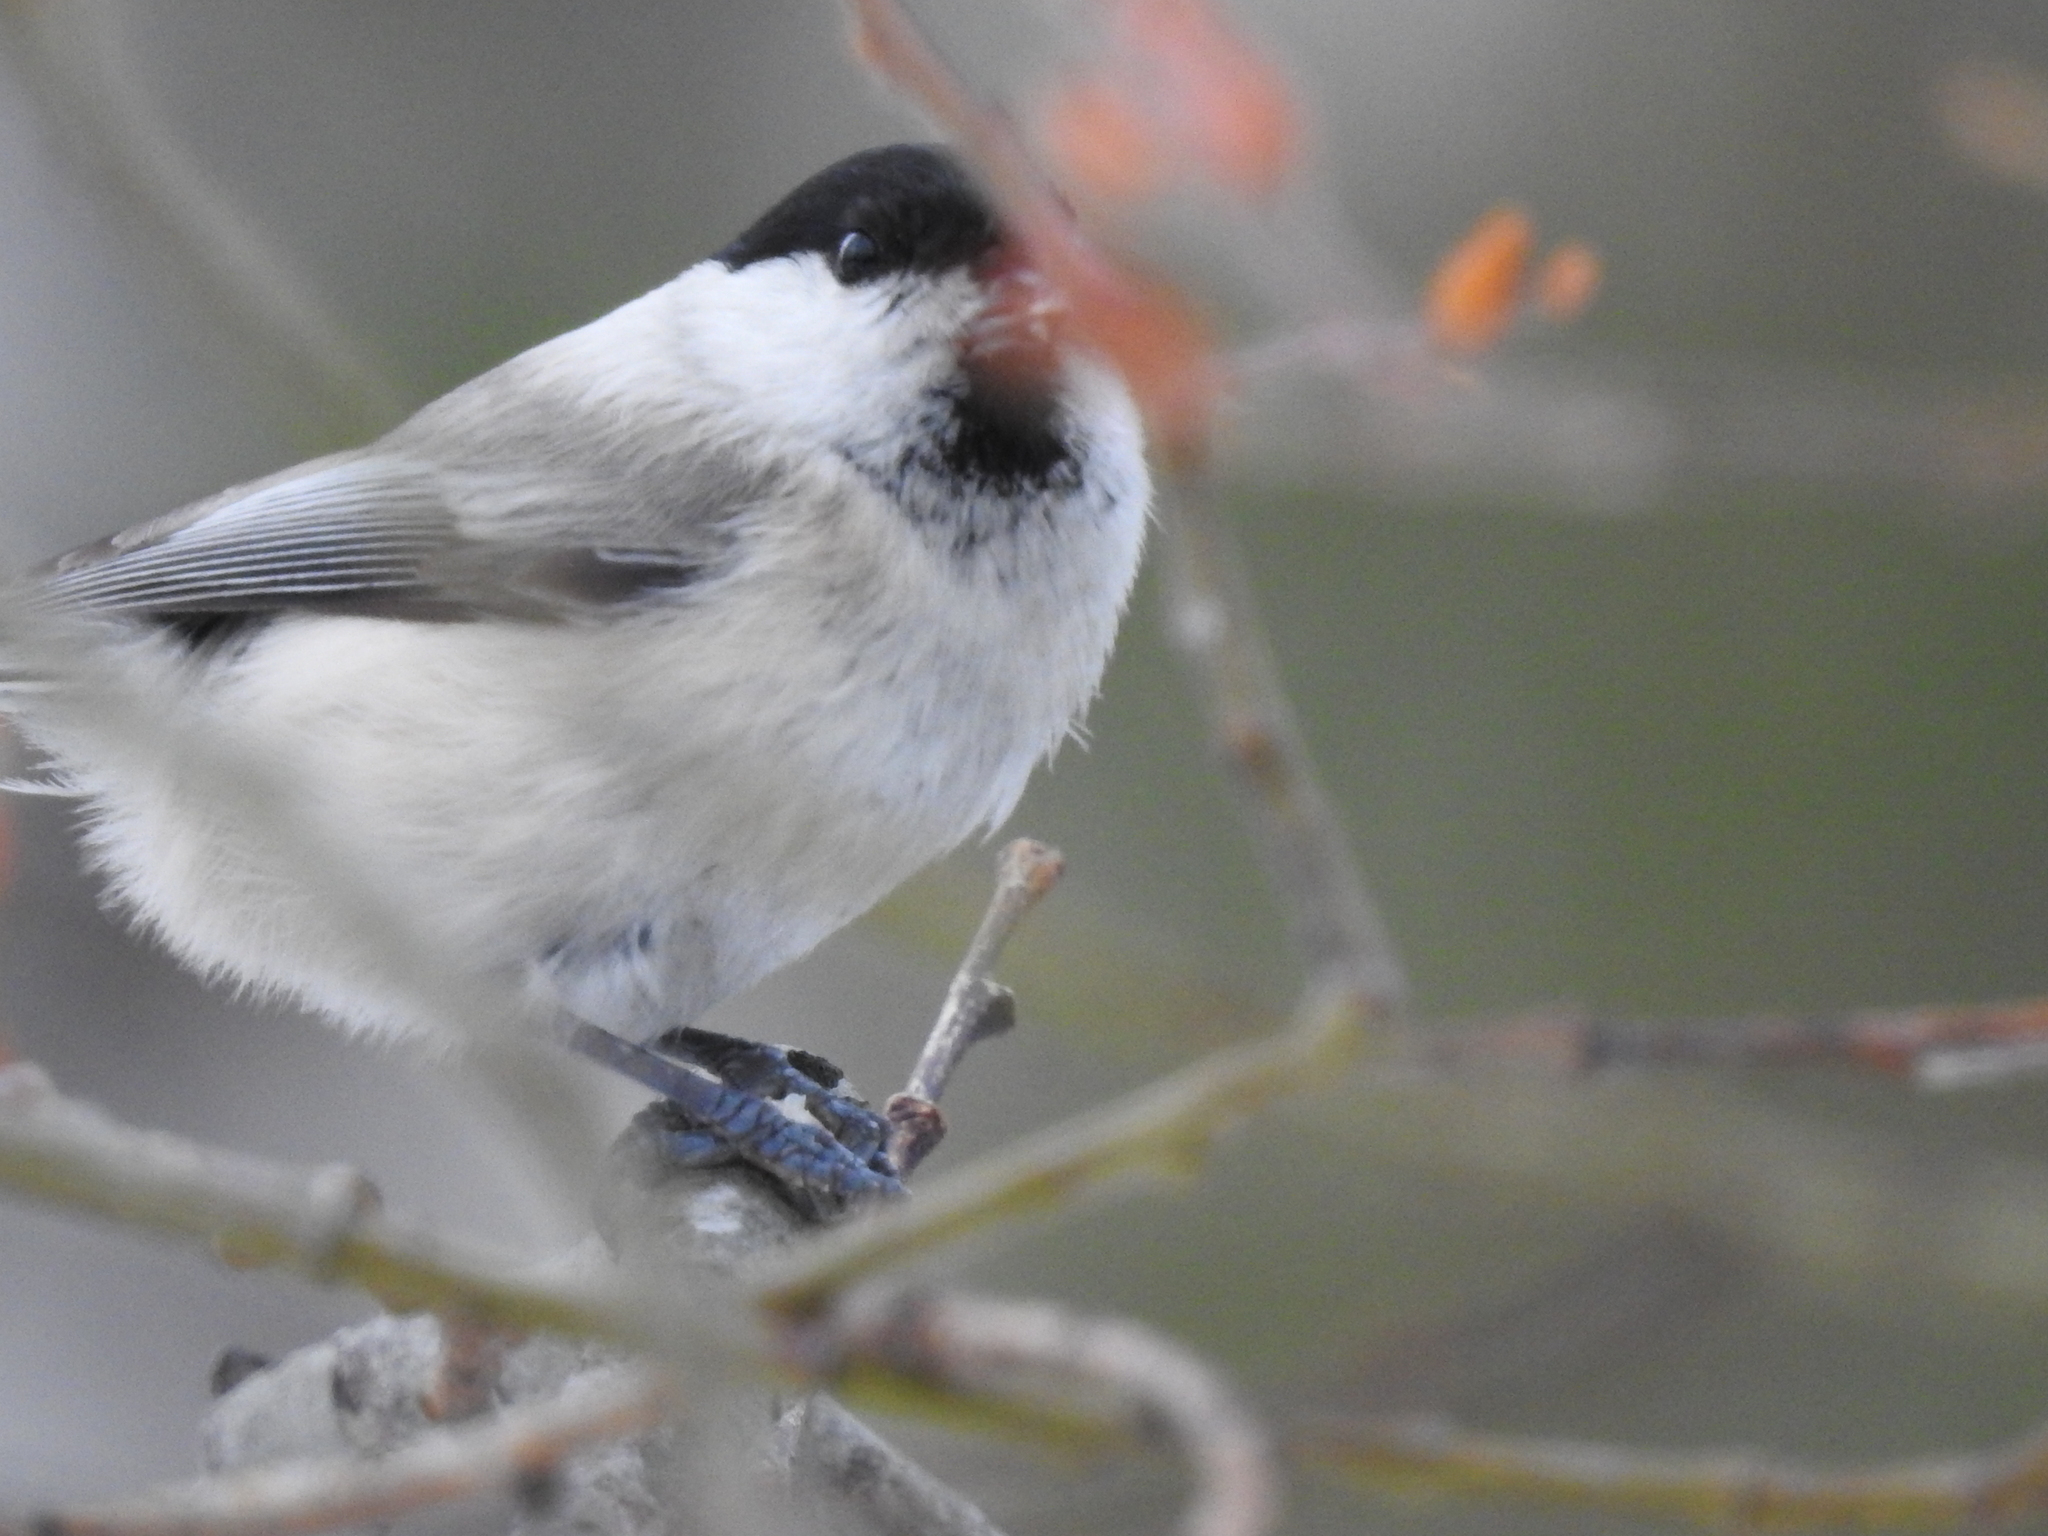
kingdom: Animalia
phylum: Chordata
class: Aves
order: Passeriformes
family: Paridae
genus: Poecile
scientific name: Poecile montanus
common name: Willow tit
